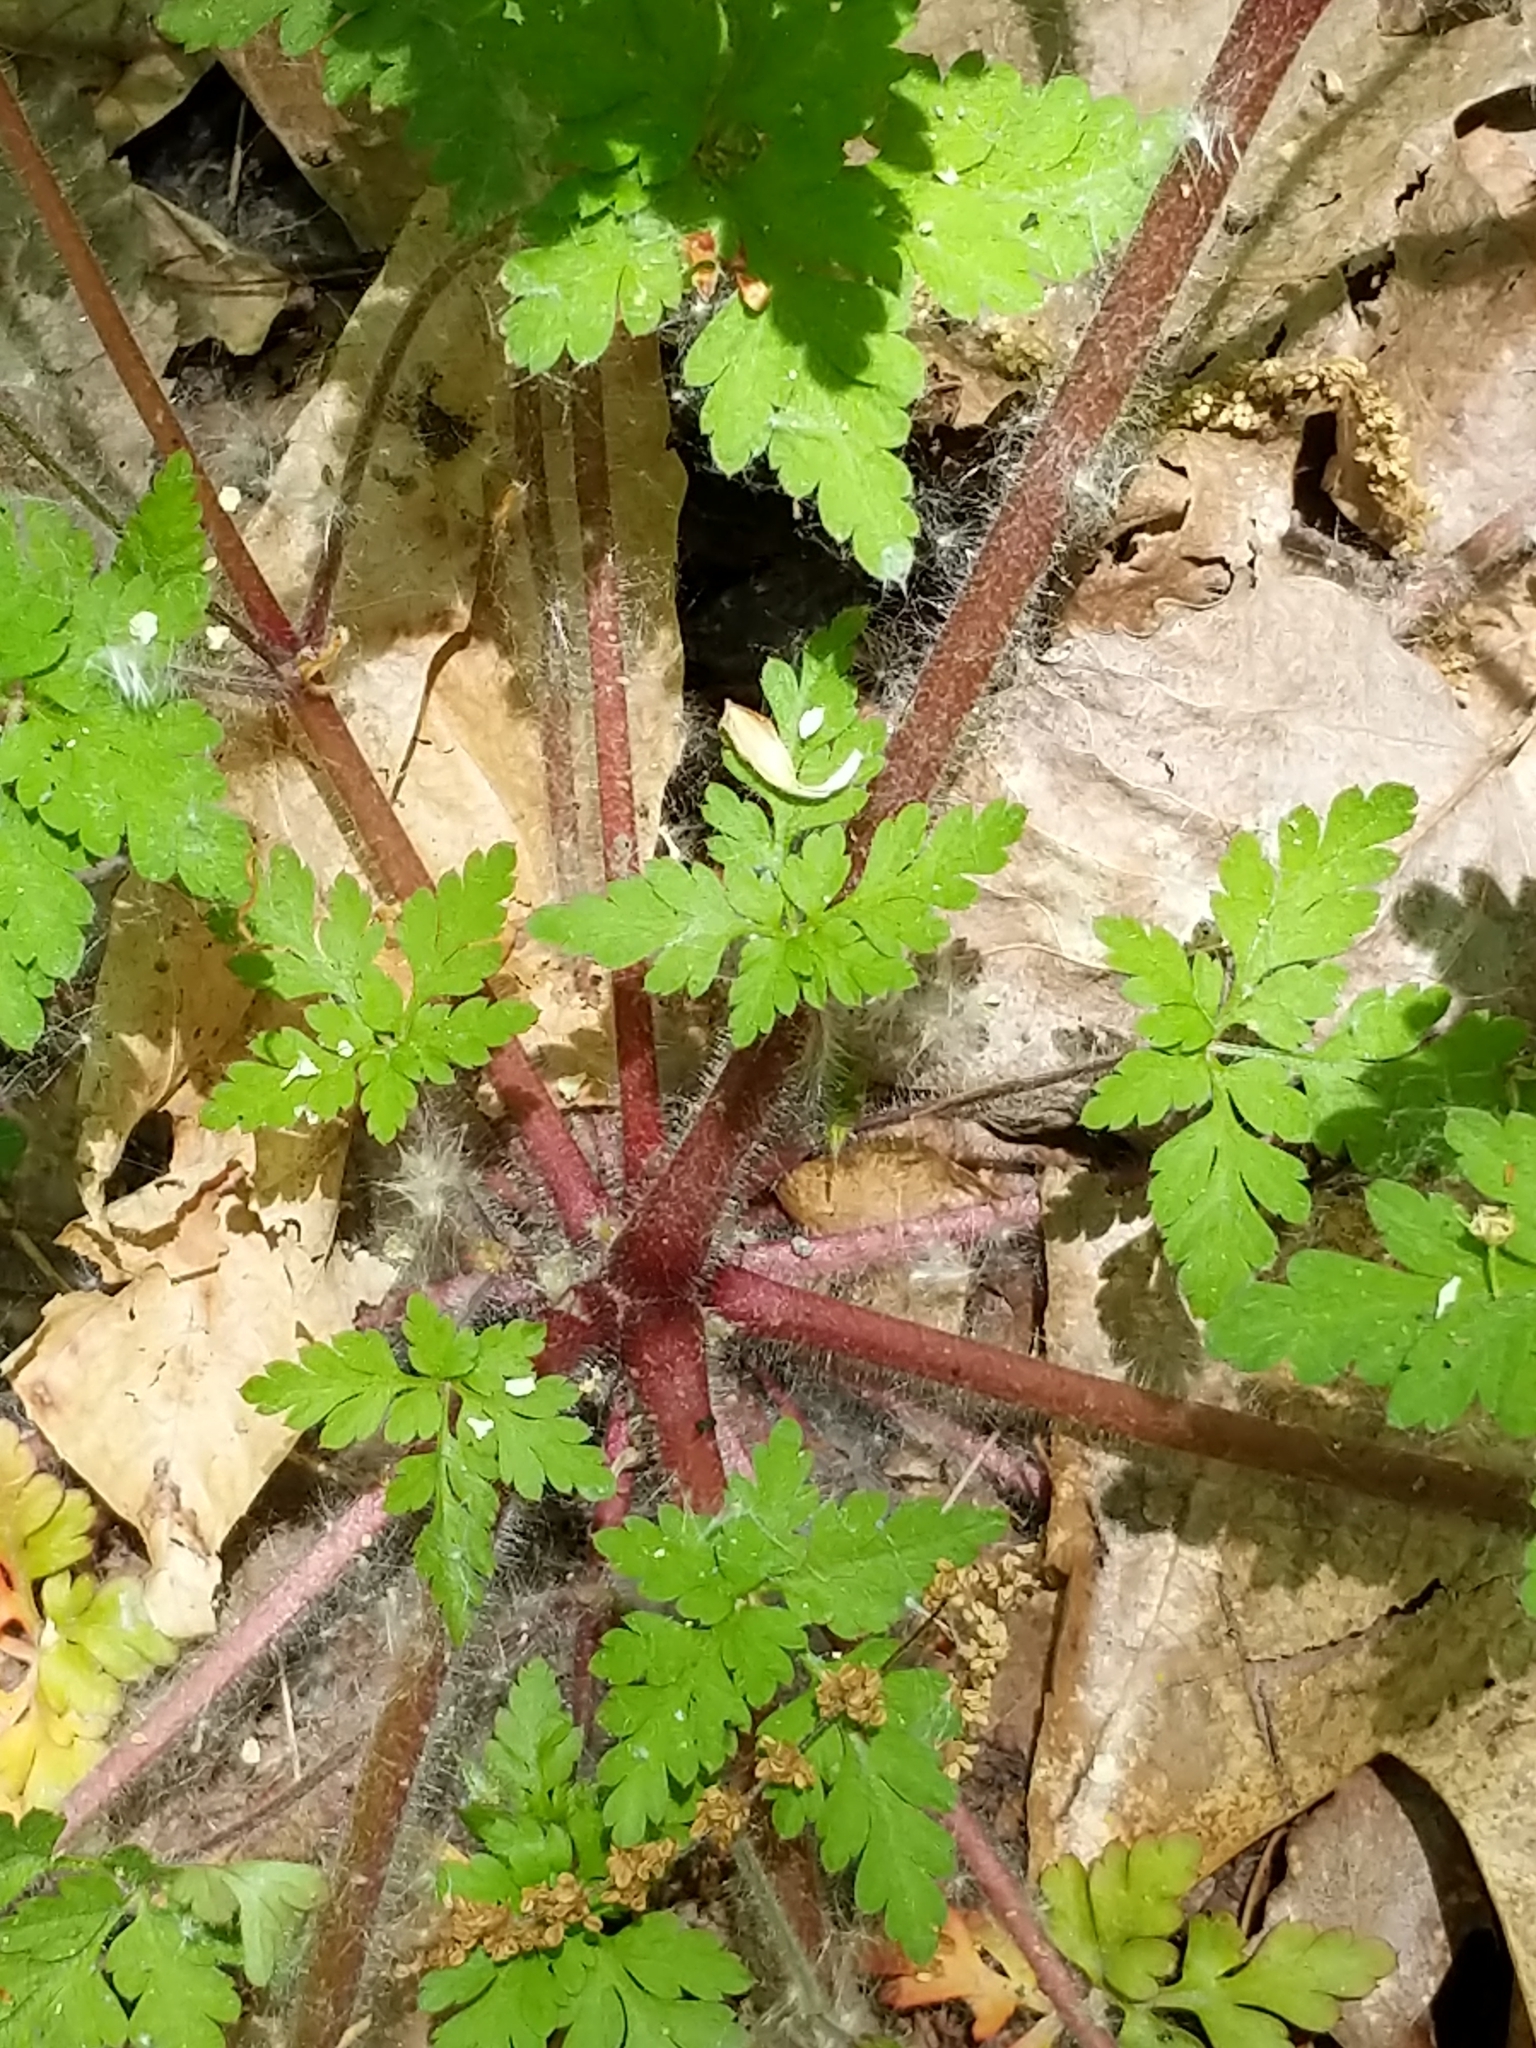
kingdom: Plantae
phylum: Tracheophyta
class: Magnoliopsida
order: Geraniales
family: Geraniaceae
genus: Geranium
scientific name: Geranium robertianum
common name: Herb-robert
